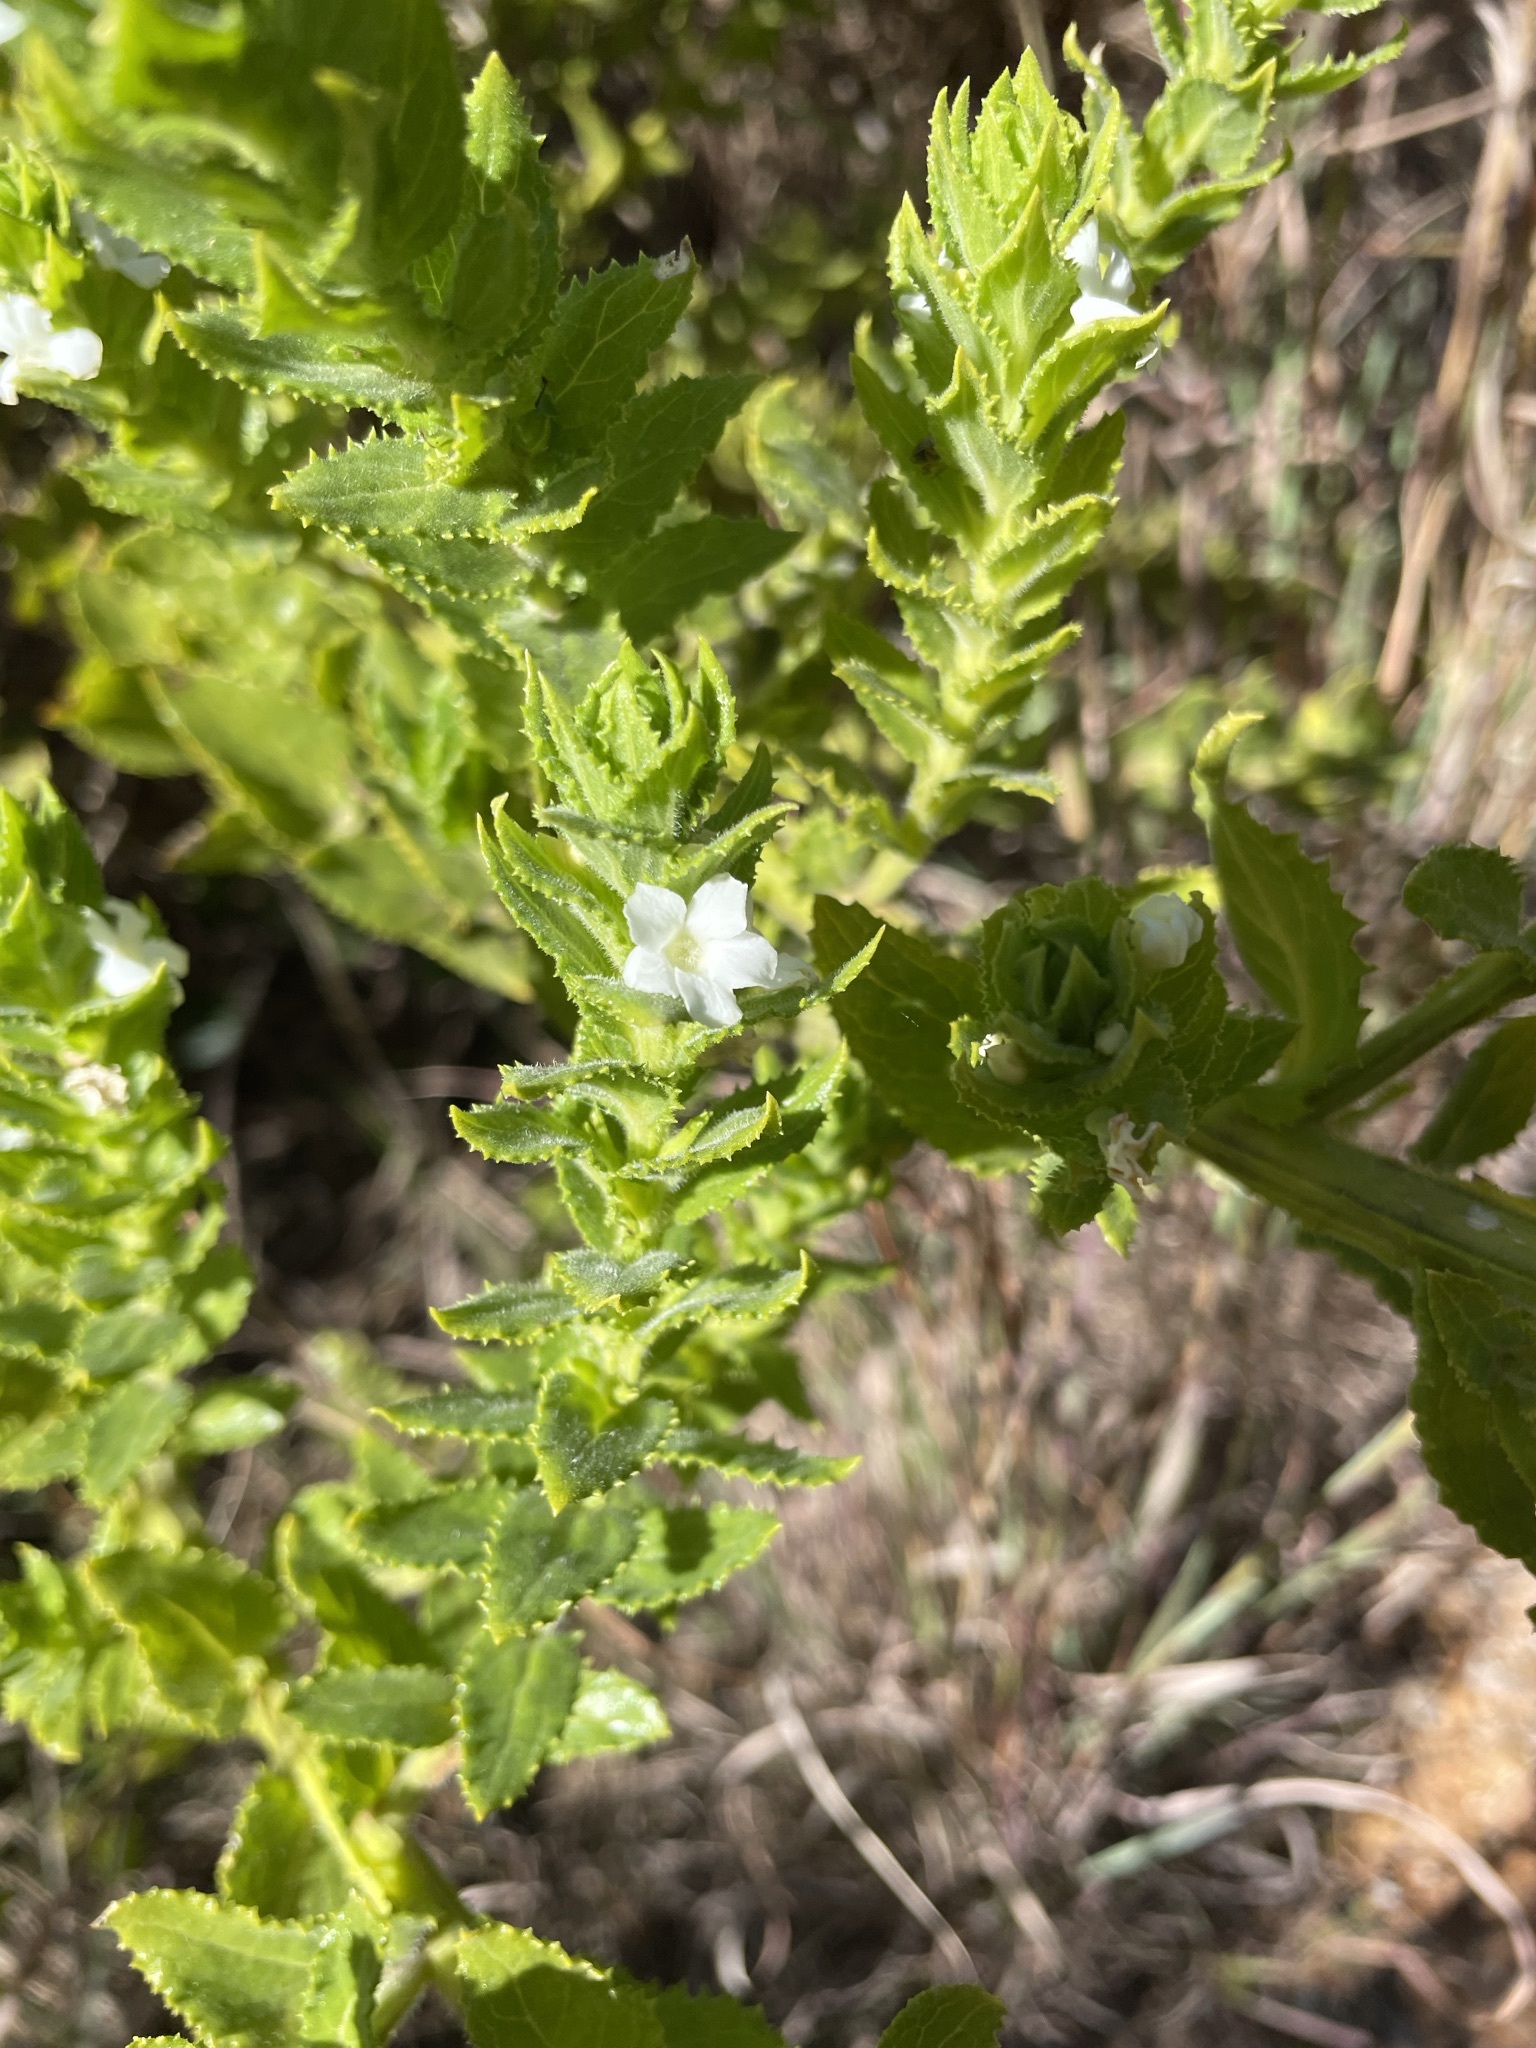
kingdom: Plantae
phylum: Tracheophyta
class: Magnoliopsida
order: Lamiales
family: Scrophulariaceae
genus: Oftia
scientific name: Oftia africana
